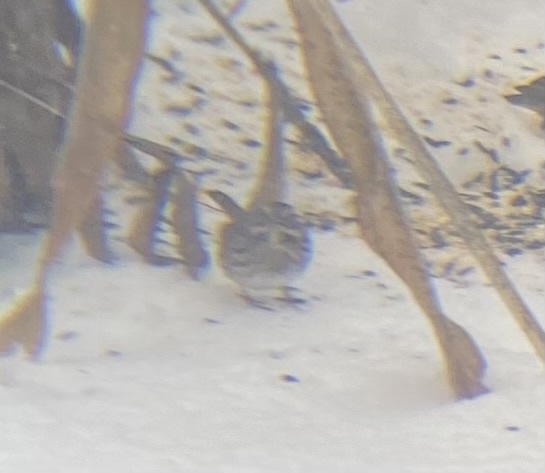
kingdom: Animalia
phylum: Chordata
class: Aves
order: Passeriformes
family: Passerellidae
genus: Melospiza
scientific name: Melospiza melodia
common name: Song sparrow
